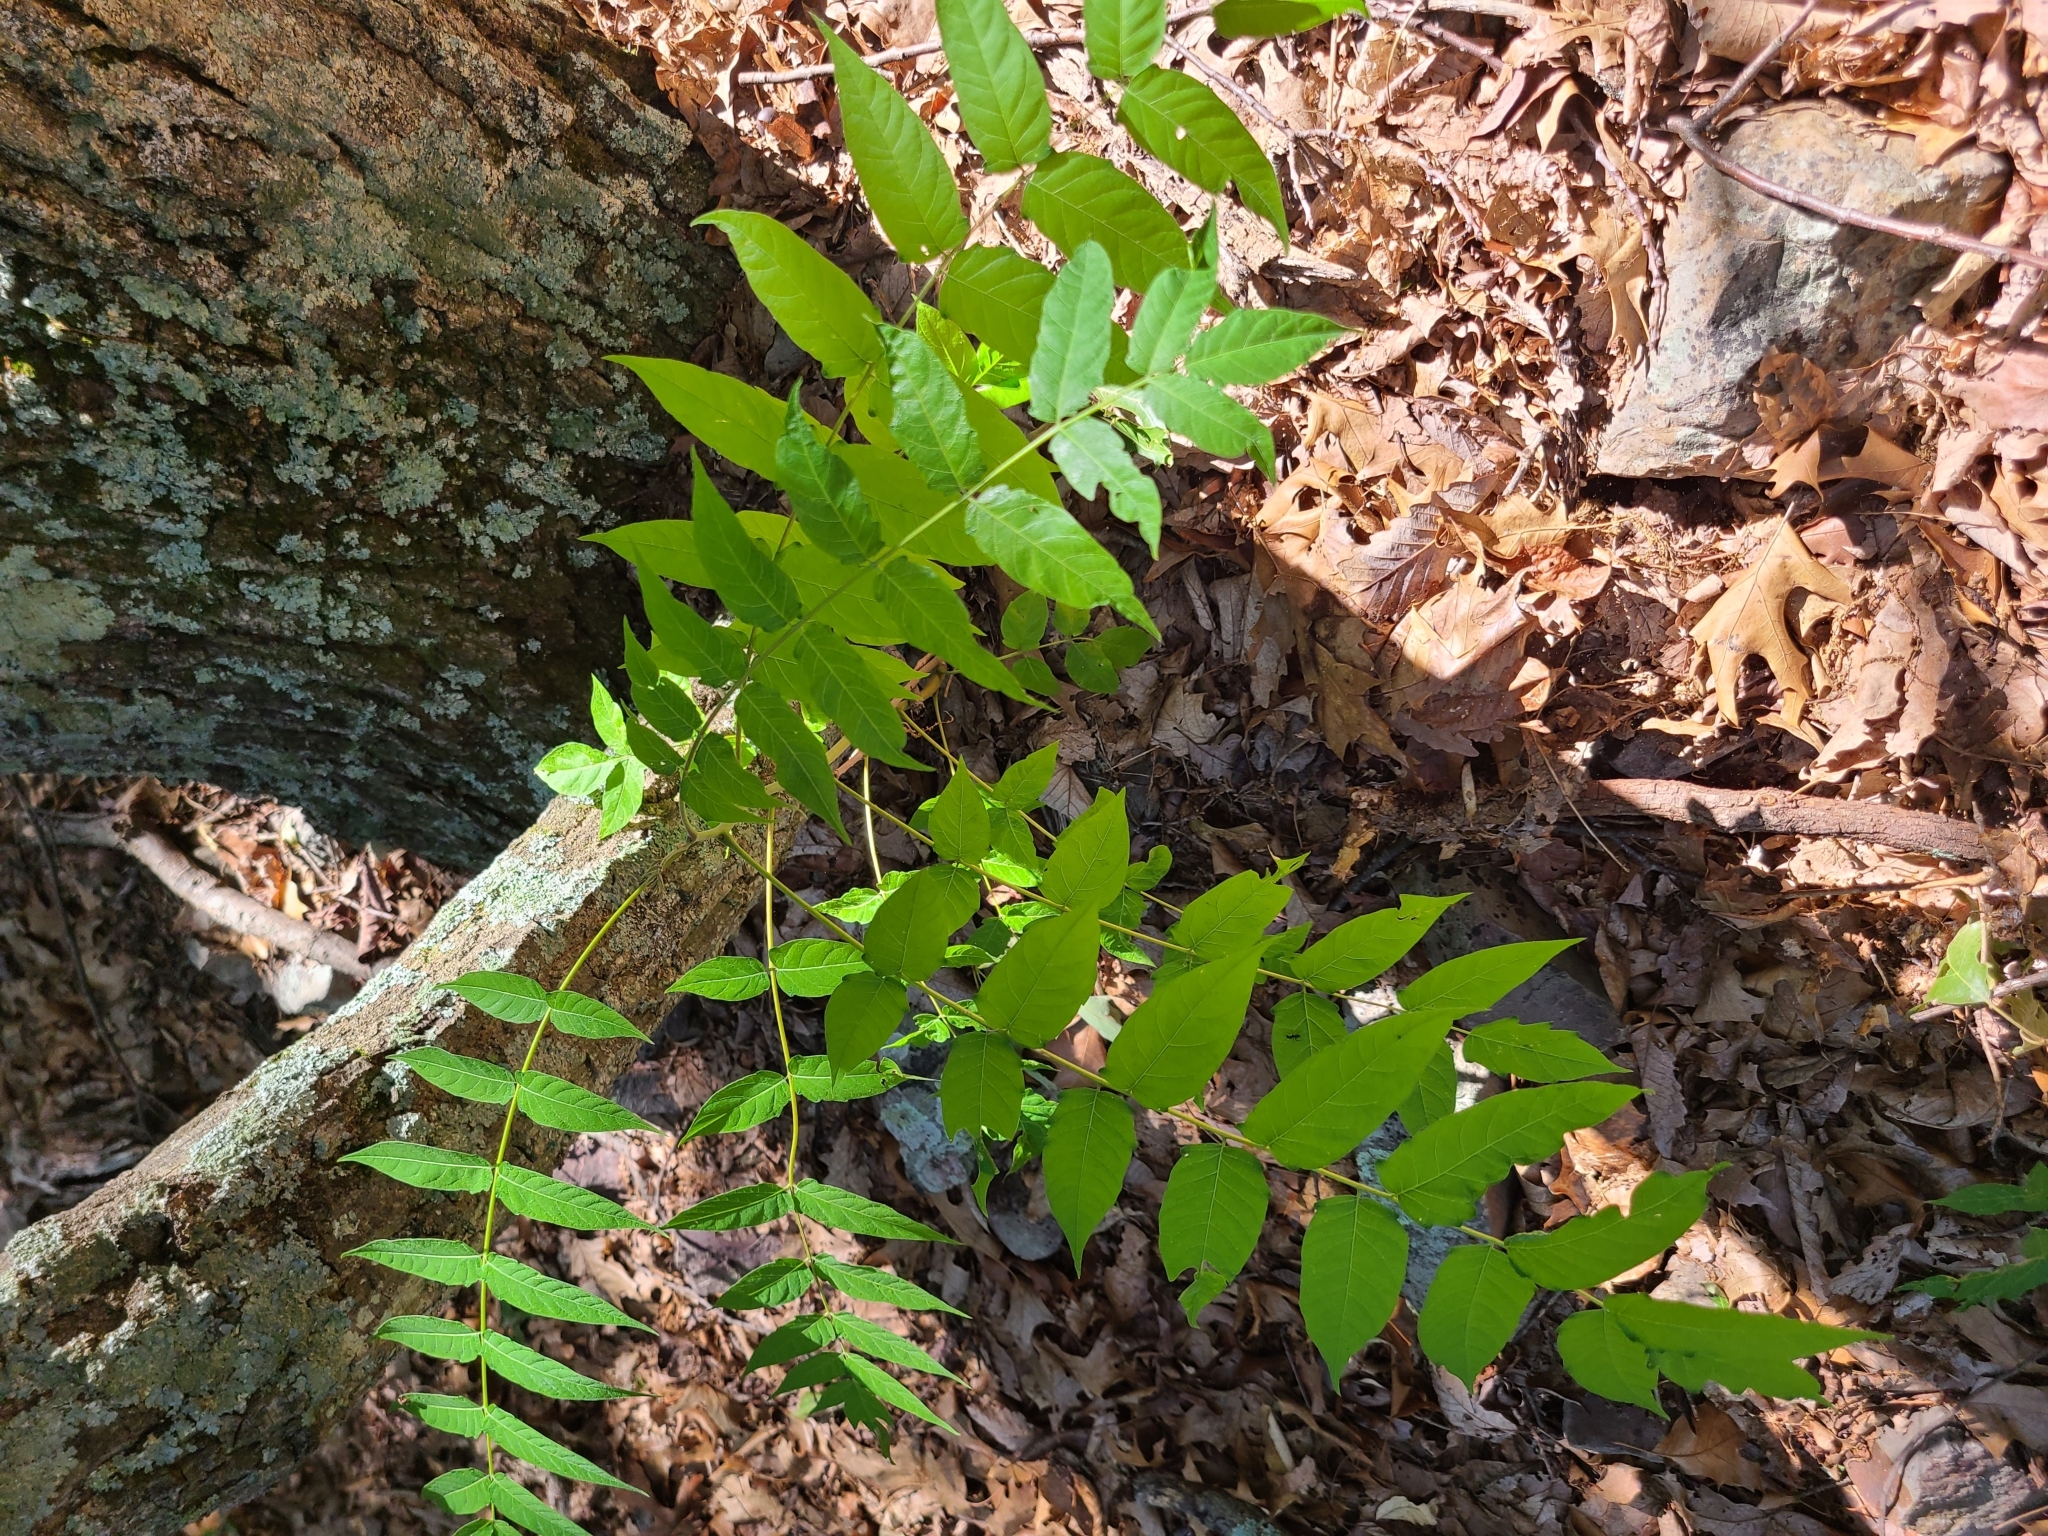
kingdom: Plantae
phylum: Tracheophyta
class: Magnoliopsida
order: Sapindales
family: Simaroubaceae
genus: Ailanthus
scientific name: Ailanthus altissima
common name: Tree-of-heaven
